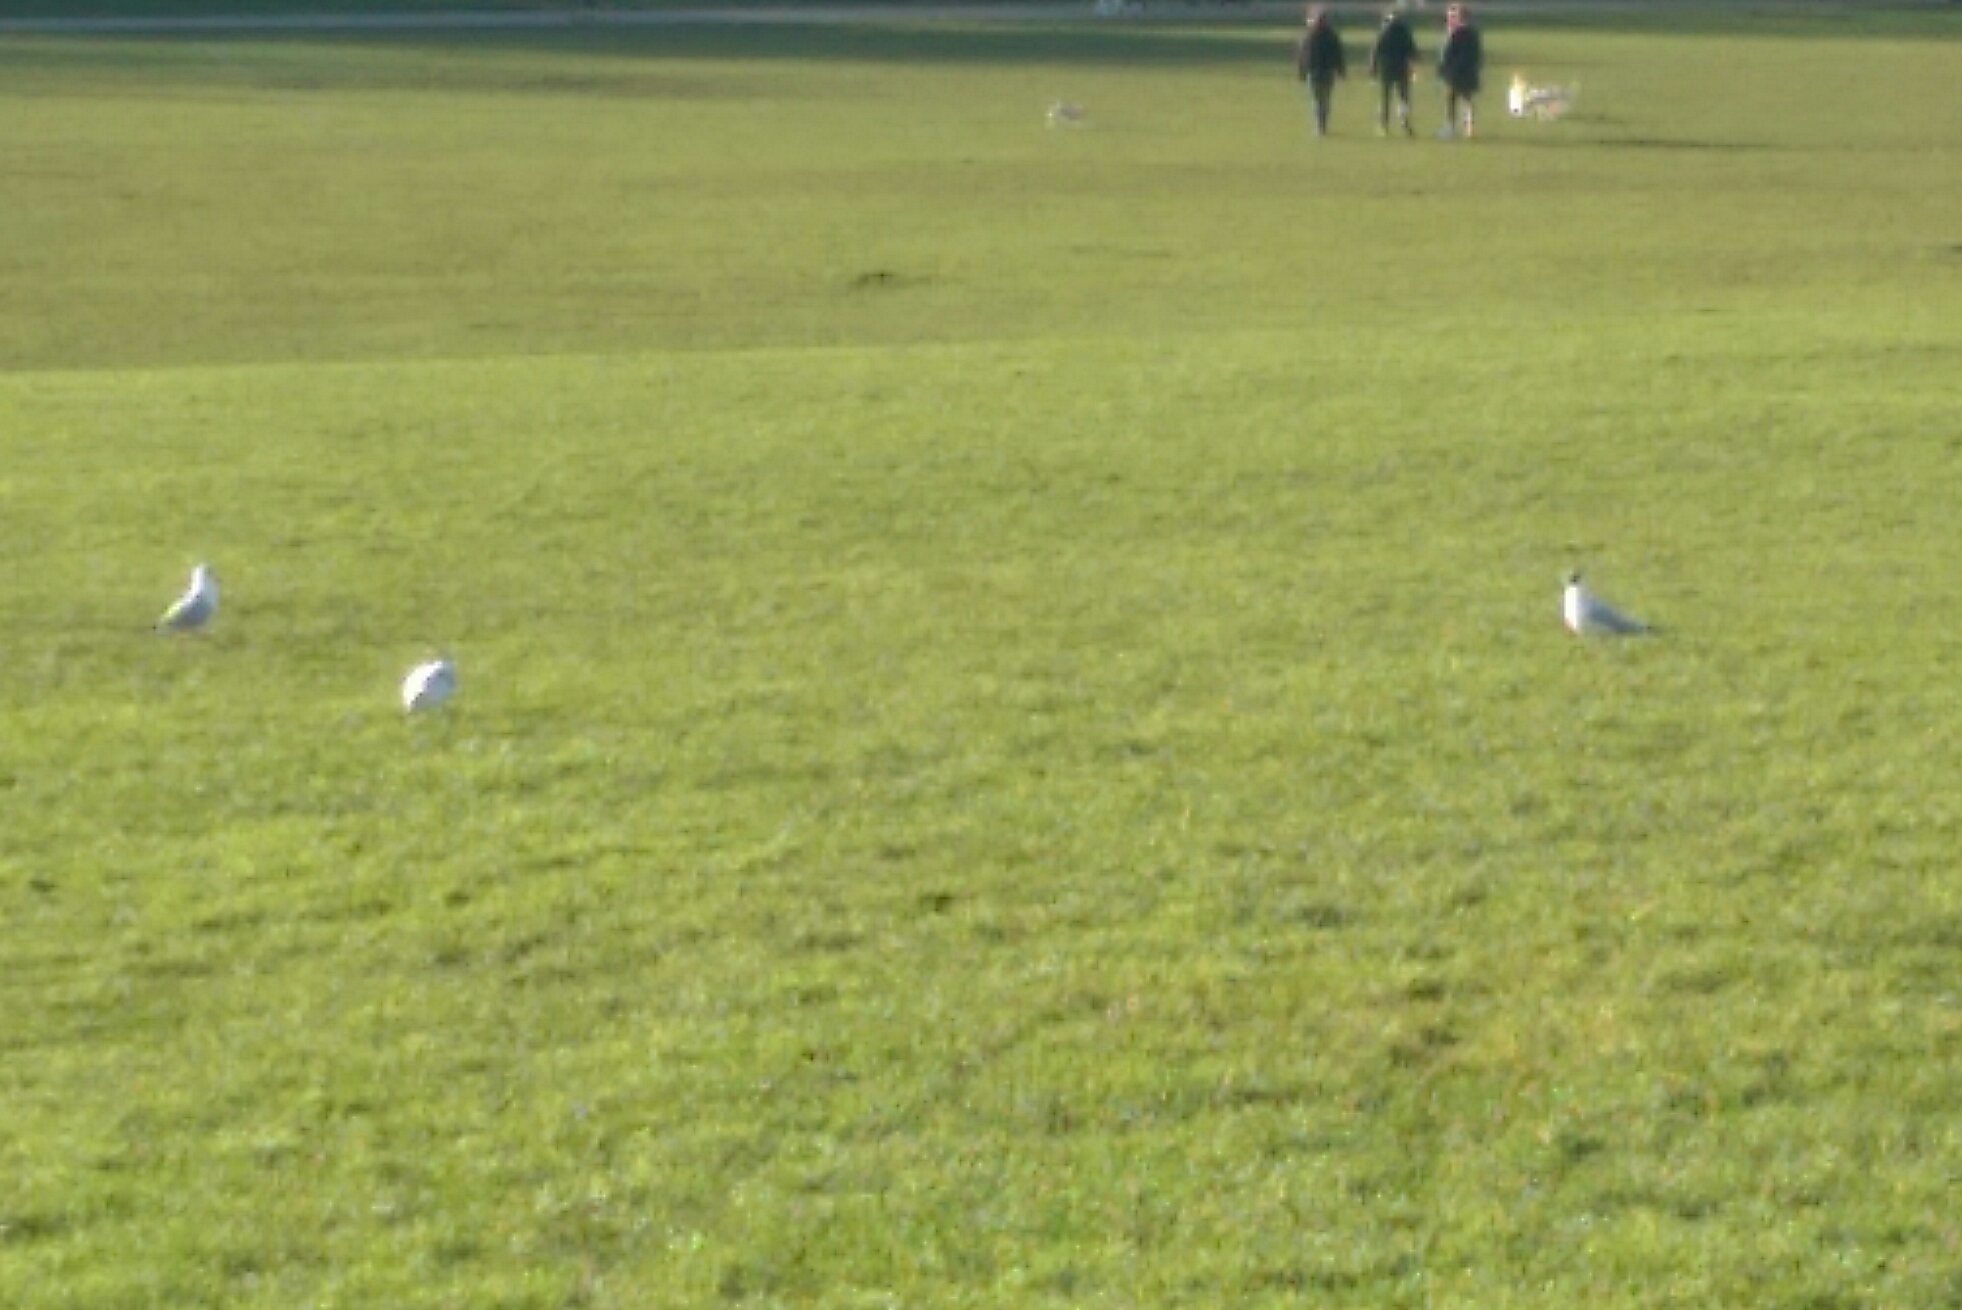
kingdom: Animalia
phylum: Chordata
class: Aves
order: Charadriiformes
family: Laridae
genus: Chroicocephalus
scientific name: Chroicocephalus ridibundus
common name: Black-headed gull
